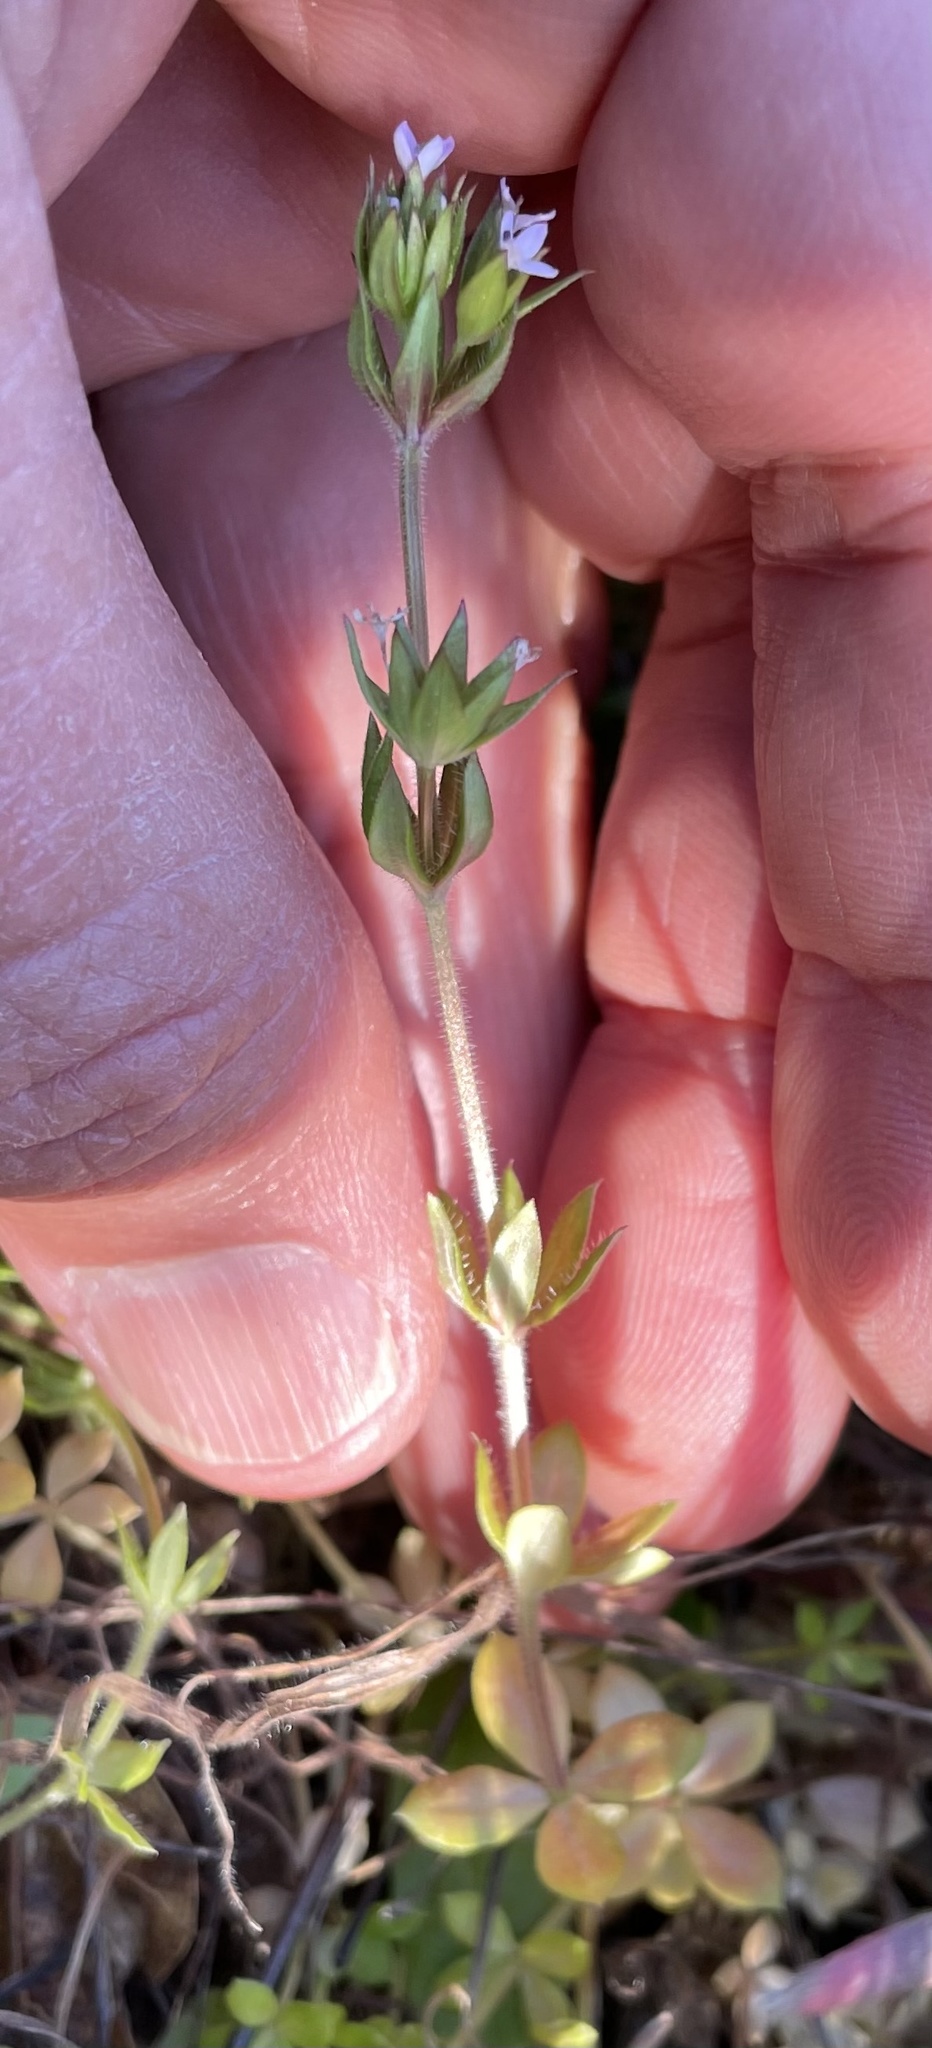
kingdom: Plantae
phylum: Tracheophyta
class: Magnoliopsida
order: Gentianales
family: Rubiaceae
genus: Sherardia
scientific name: Sherardia arvensis
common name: Field madder
